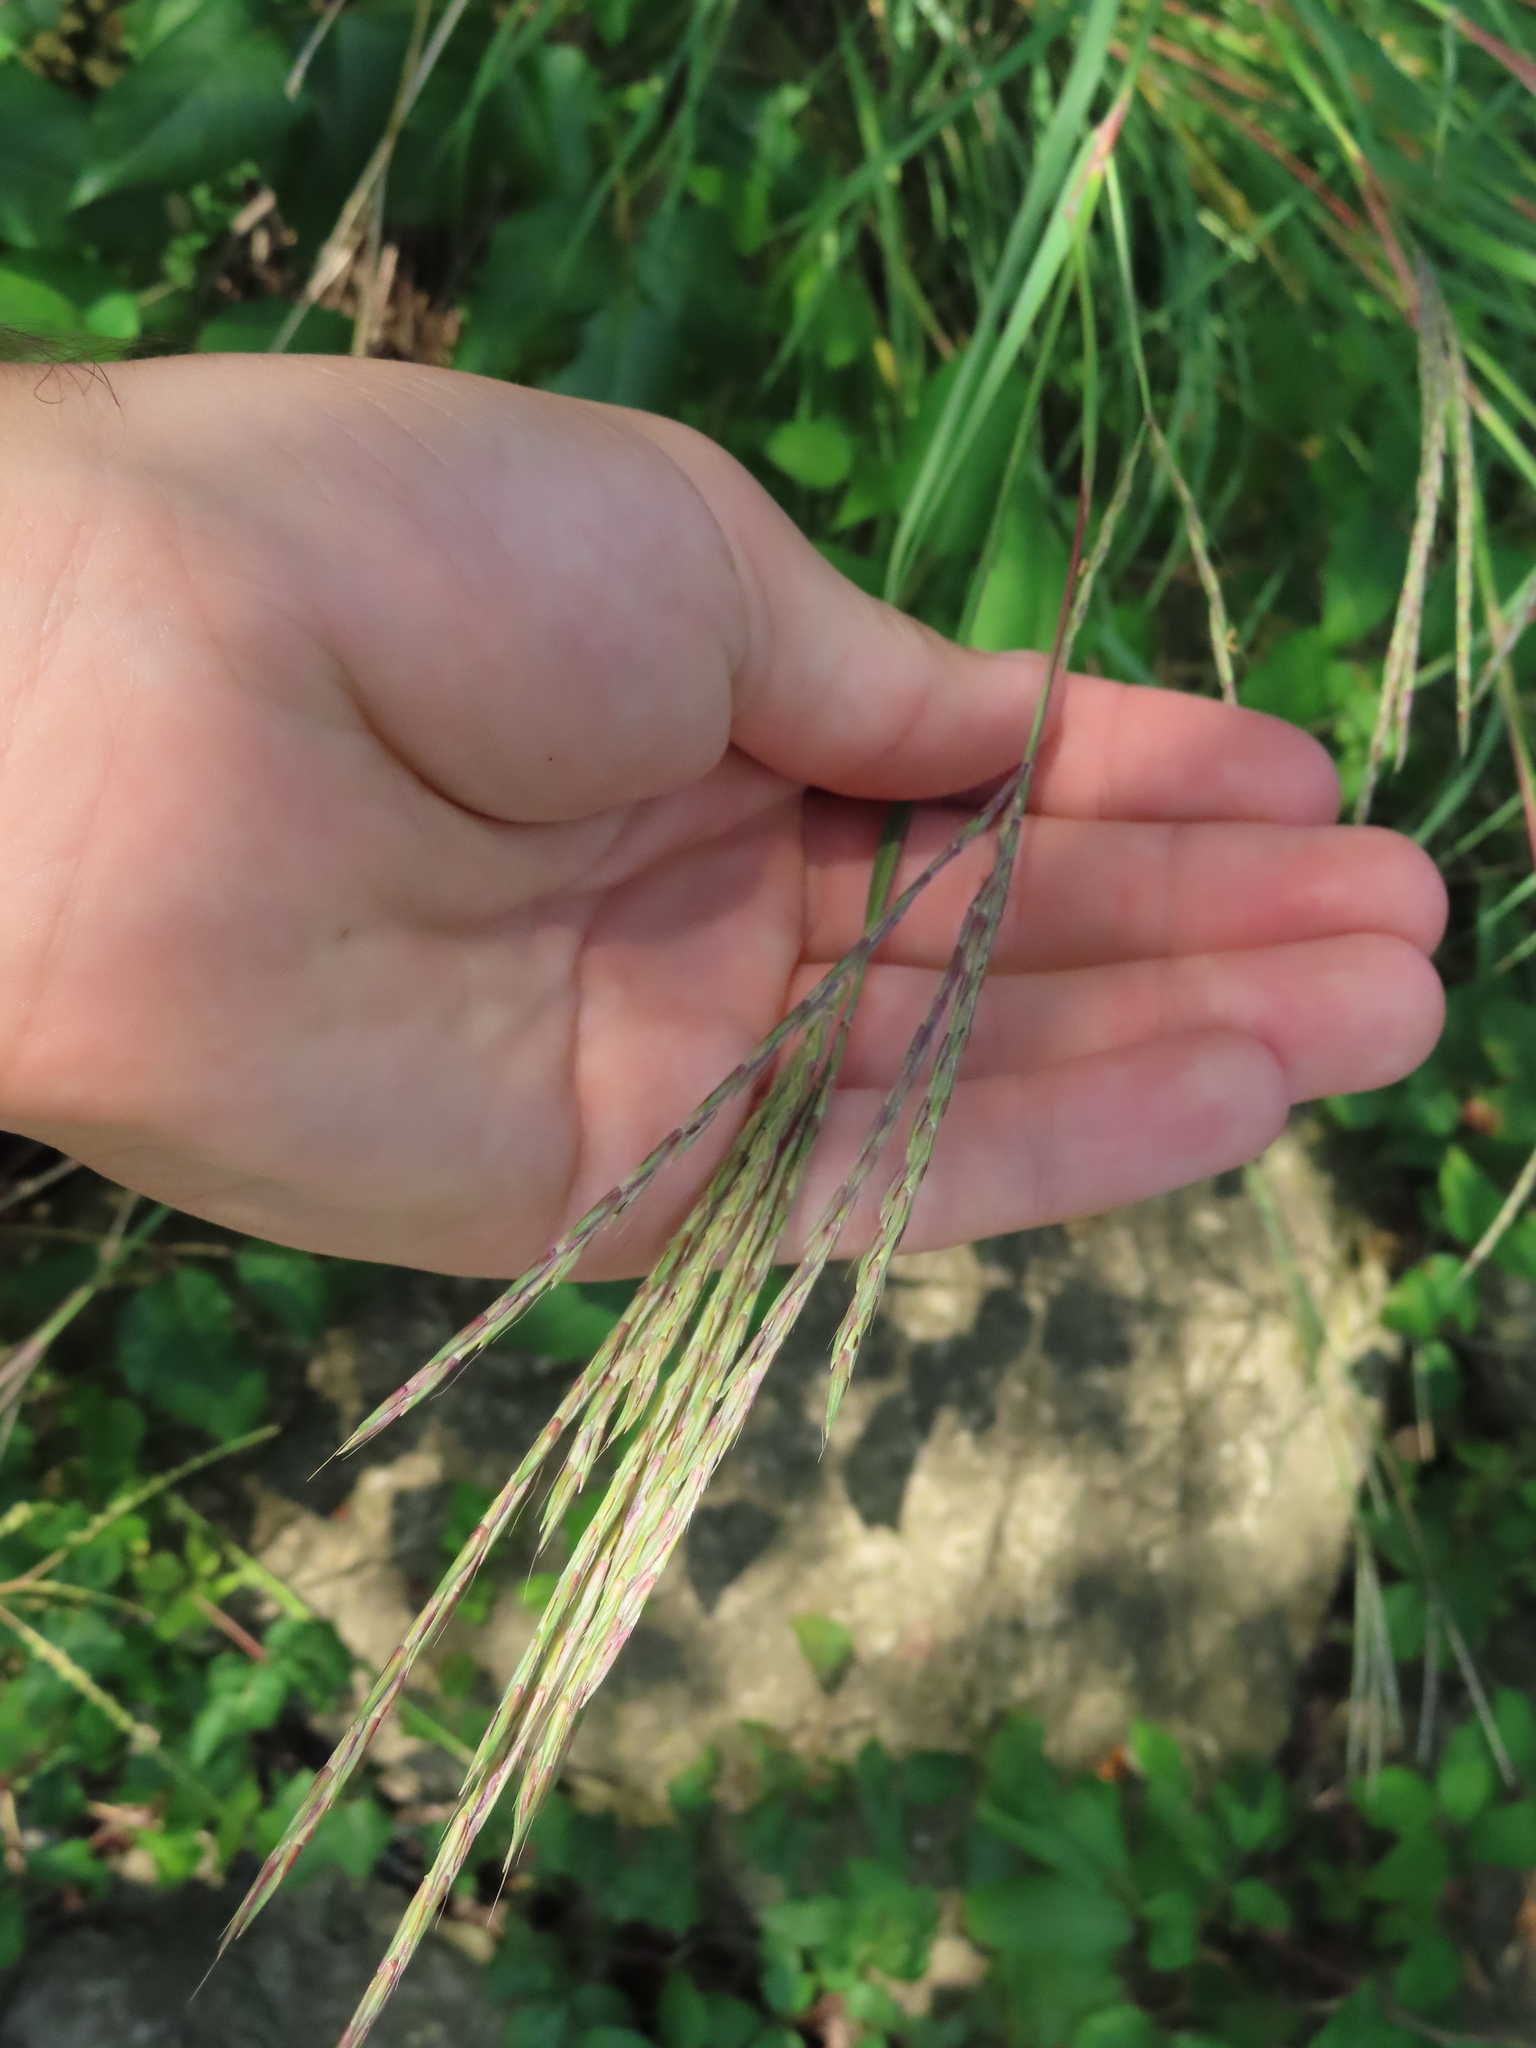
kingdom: Plantae
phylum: Tracheophyta
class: Liliopsida
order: Poales
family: Poaceae
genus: Andropogon
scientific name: Andropogon gerardi
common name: Big bluestem
